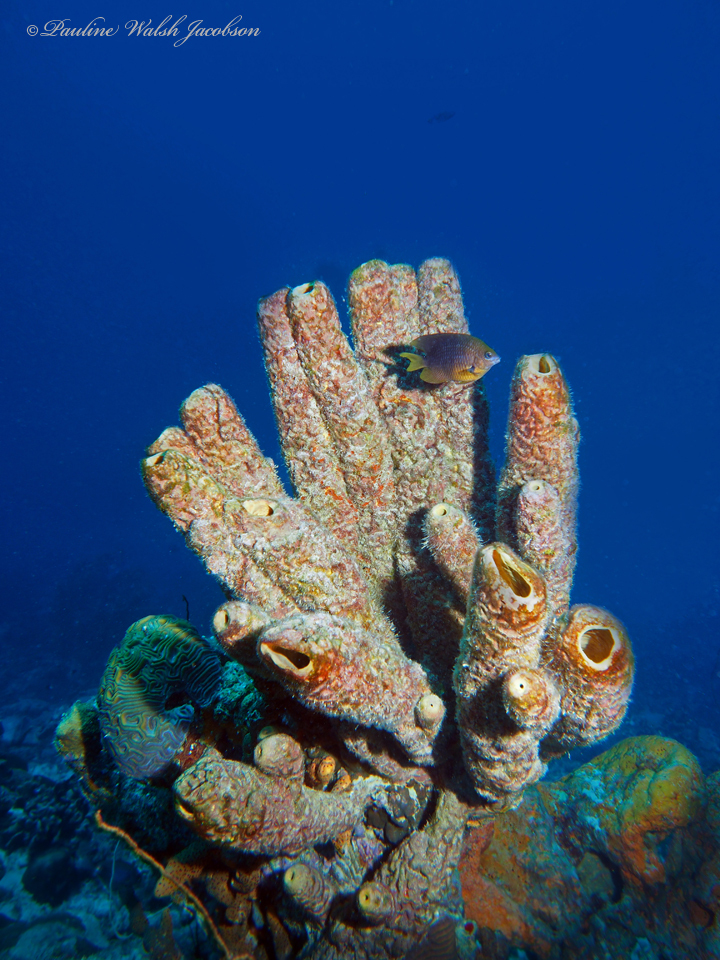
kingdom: Animalia
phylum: Chordata
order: Perciformes
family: Pomacentridae
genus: Stegastes
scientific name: Stegastes planifrons
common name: Threespot damselfish
